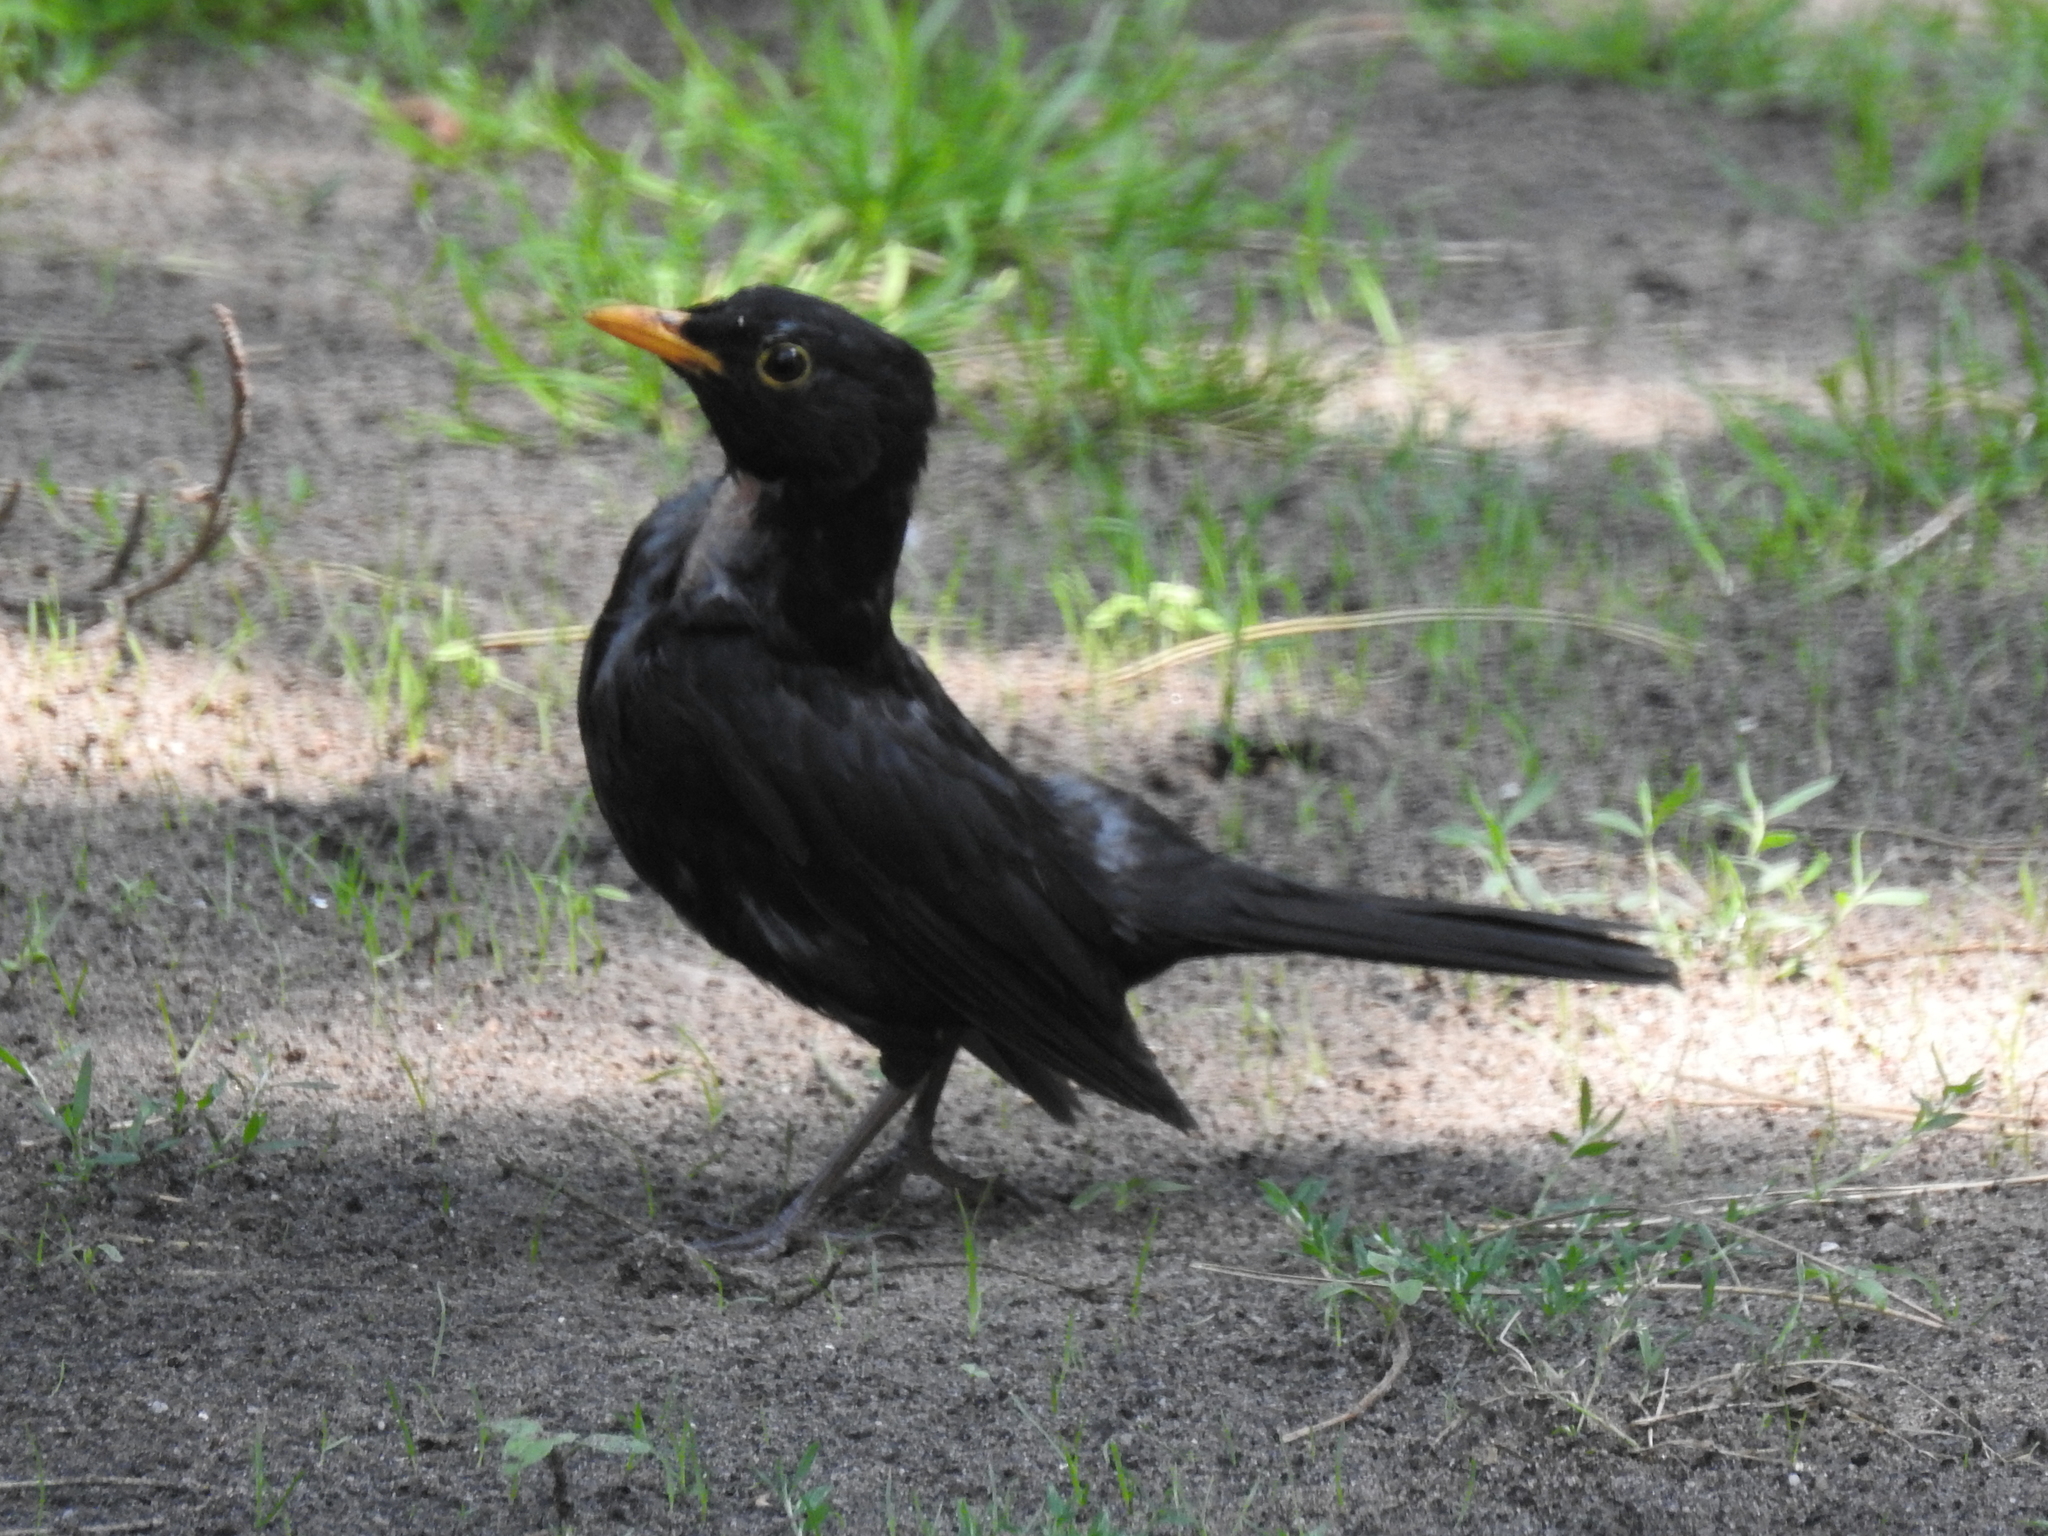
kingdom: Animalia
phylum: Chordata
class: Aves
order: Passeriformes
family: Turdidae
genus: Turdus
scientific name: Turdus merula
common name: Common blackbird
